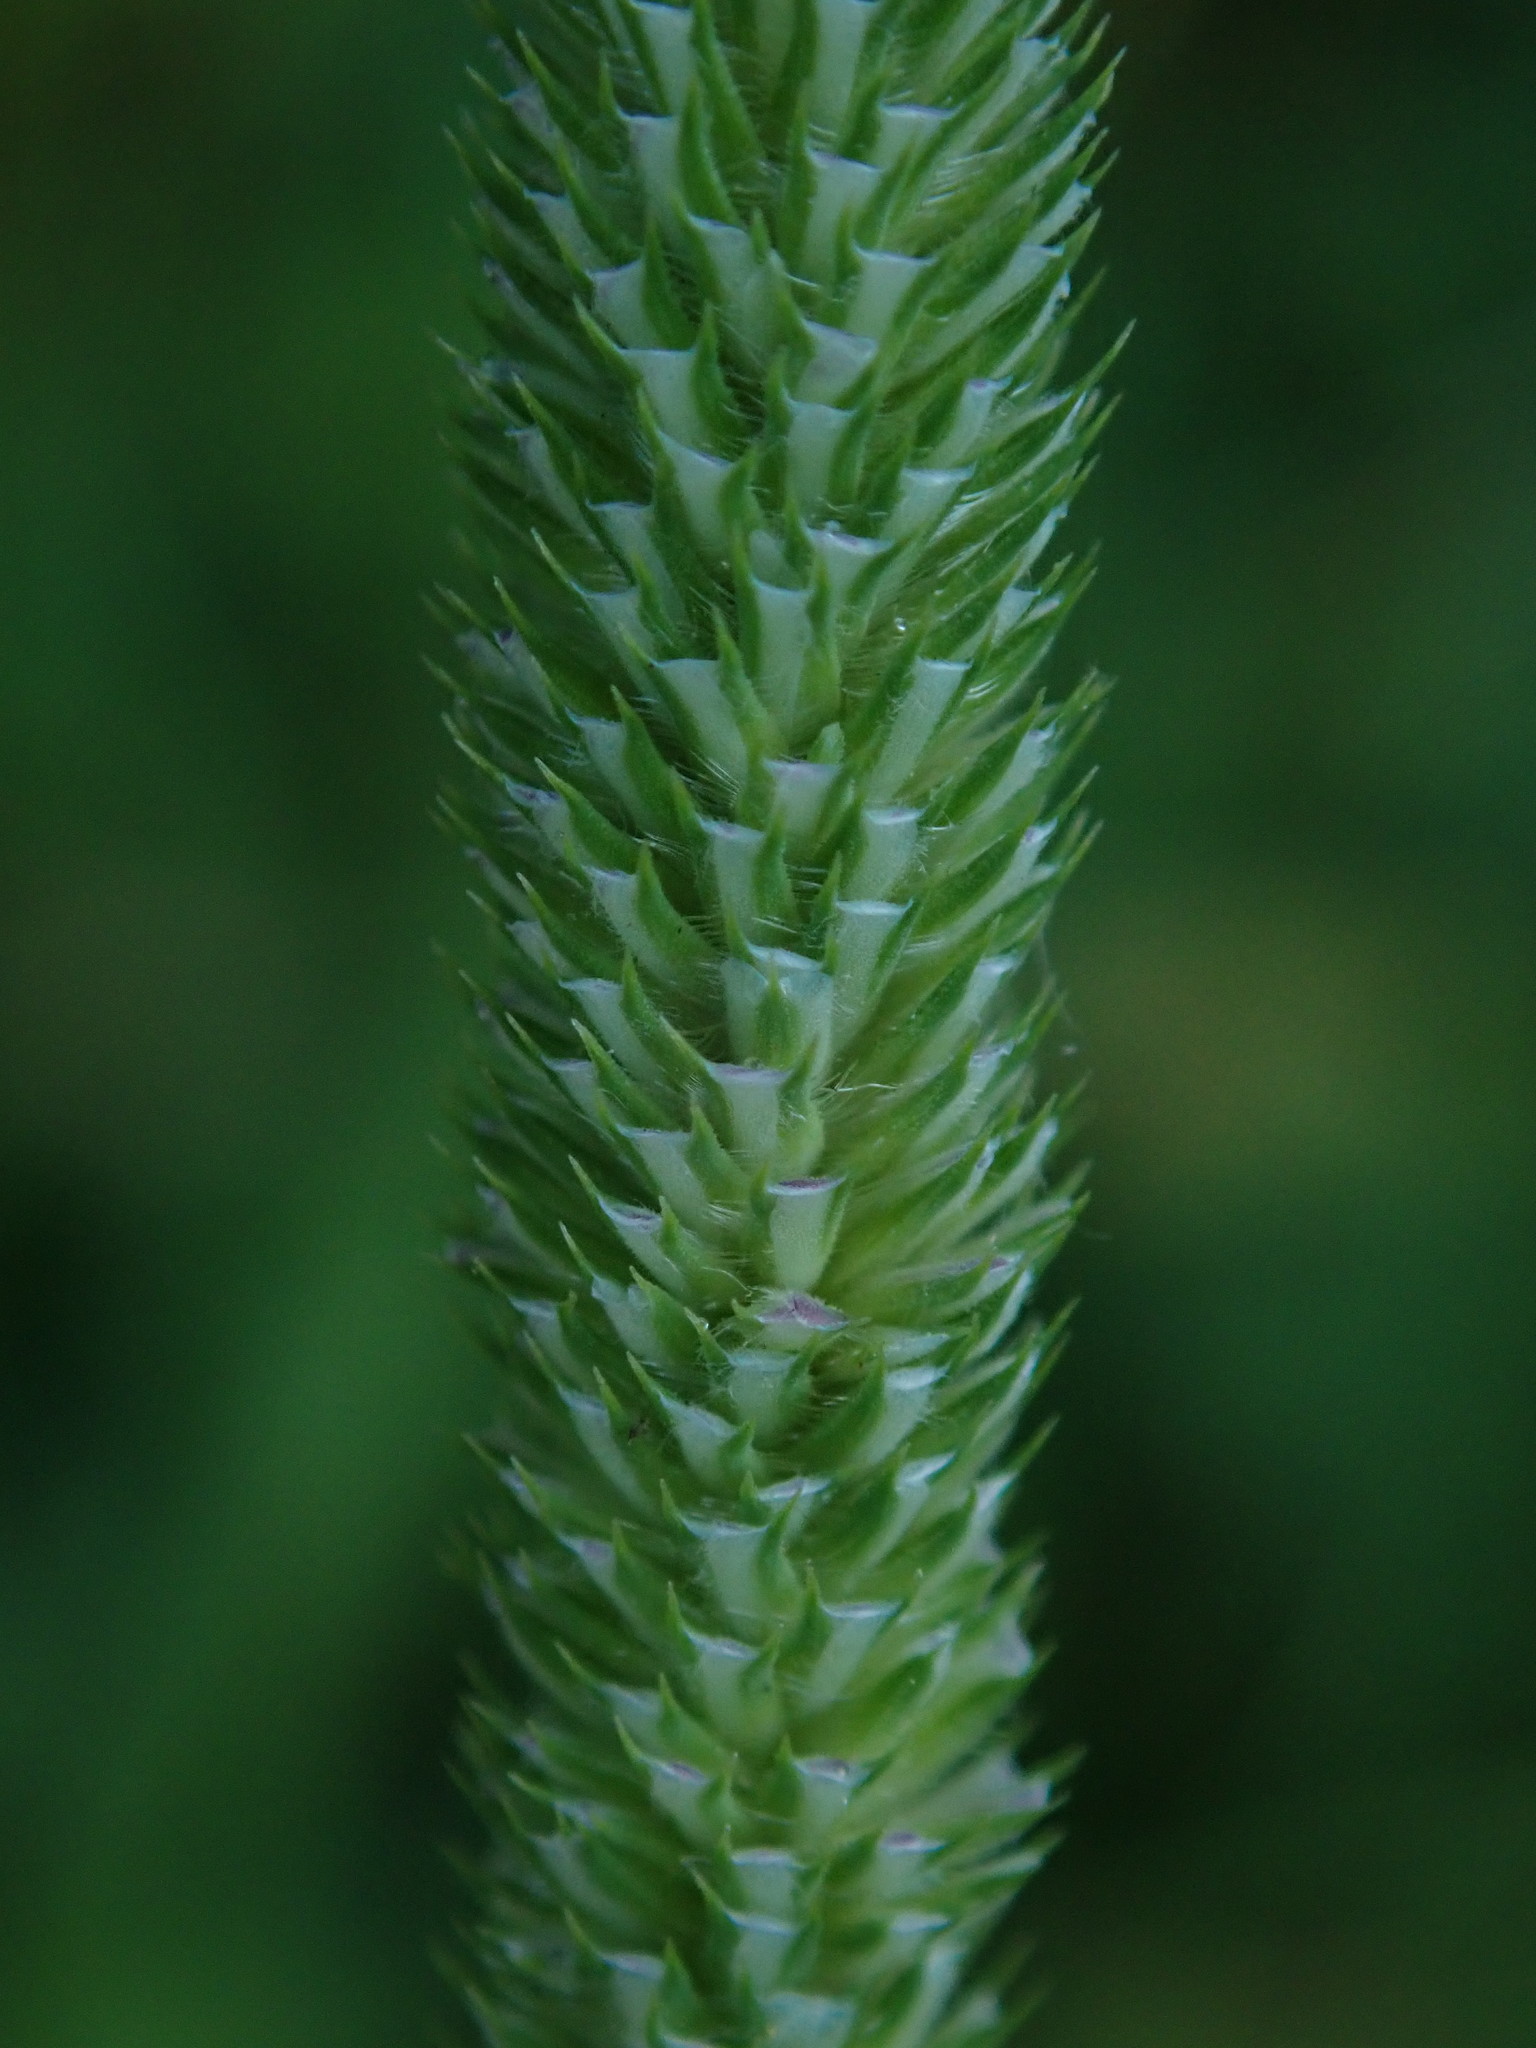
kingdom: Plantae
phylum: Tracheophyta
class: Liliopsida
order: Poales
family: Poaceae
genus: Phleum
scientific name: Phleum pratense
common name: Timothy grass
